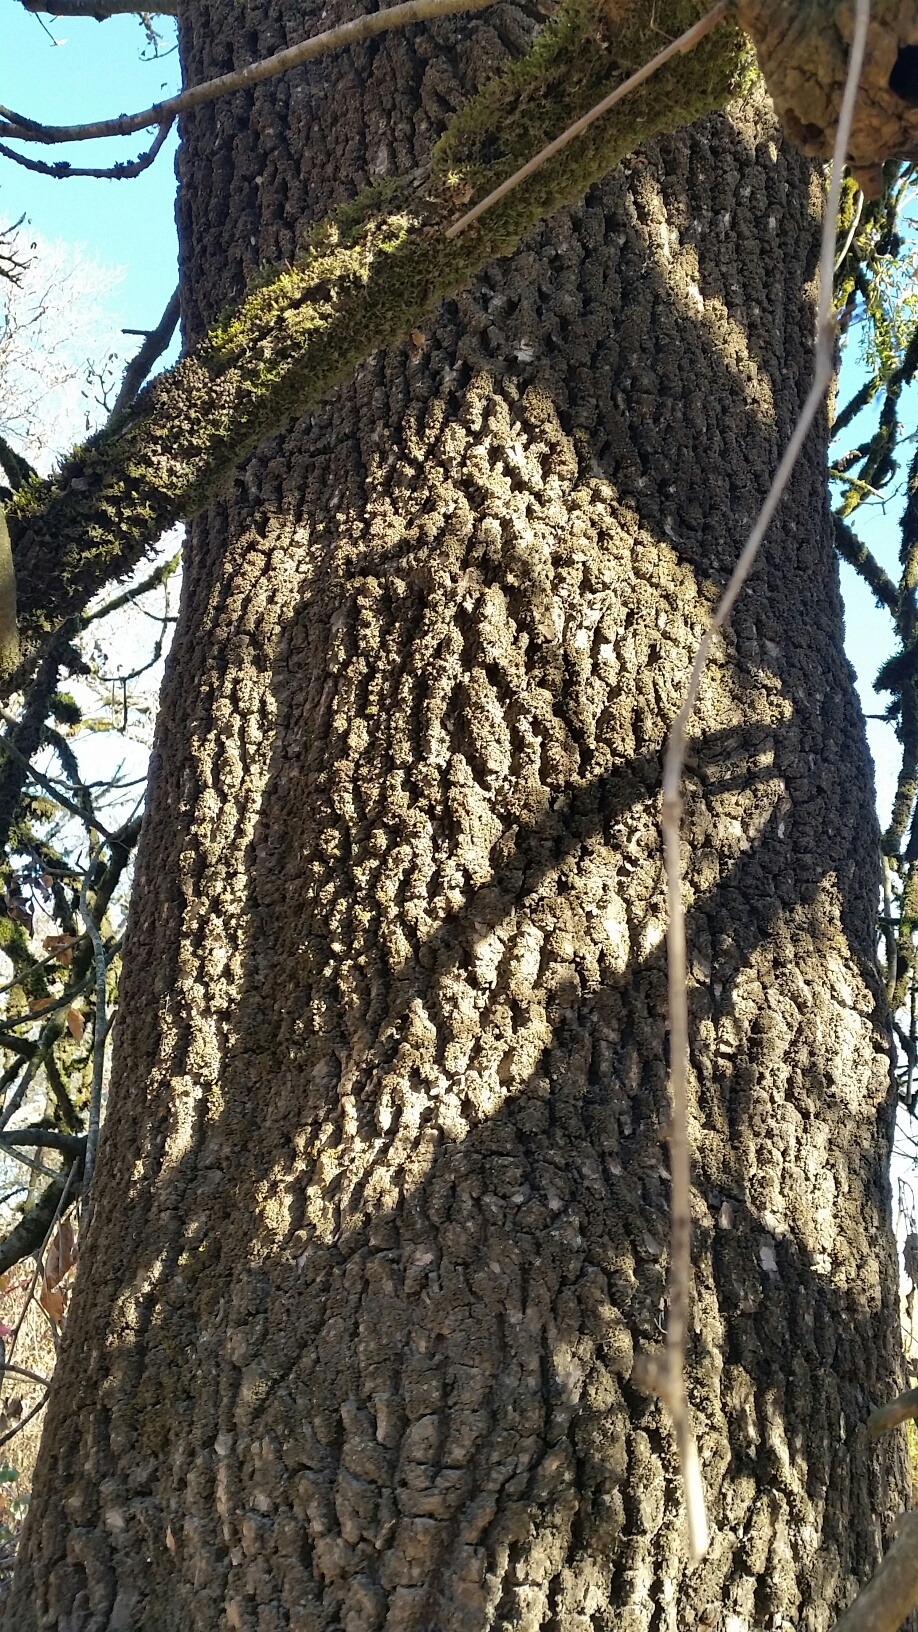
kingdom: Plantae
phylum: Tracheophyta
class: Magnoliopsida
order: Lamiales
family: Oleaceae
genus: Fraxinus
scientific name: Fraxinus latifolia
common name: Oregon ash
